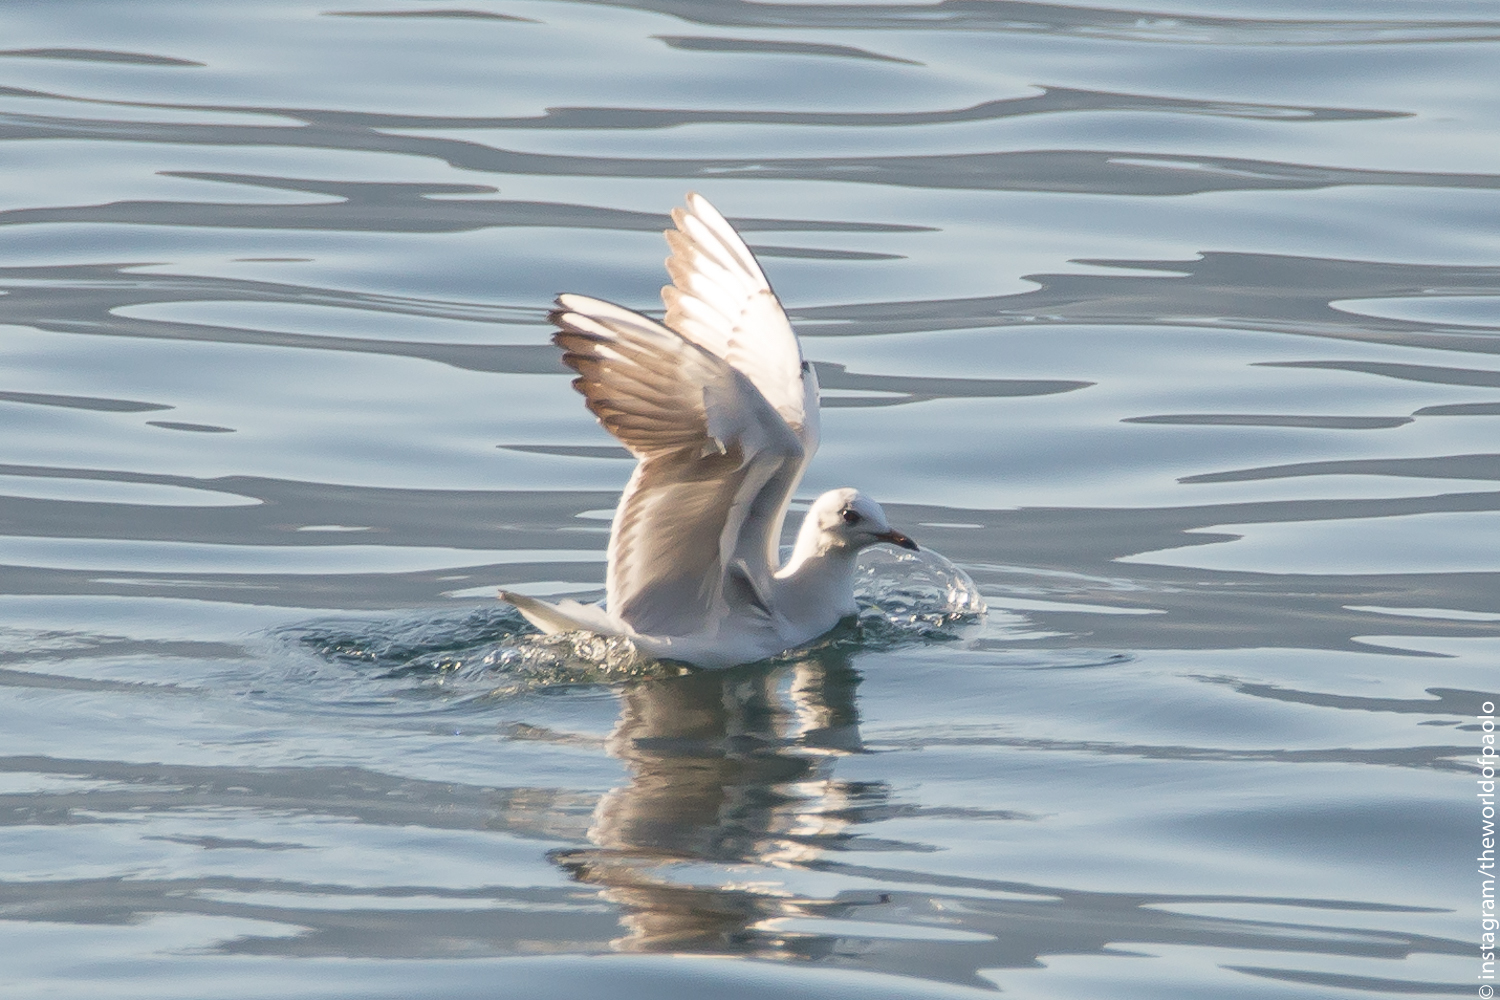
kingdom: Animalia
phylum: Chordata
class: Aves
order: Charadriiformes
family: Laridae
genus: Chroicocephalus
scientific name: Chroicocephalus ridibundus
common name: Black-headed gull
